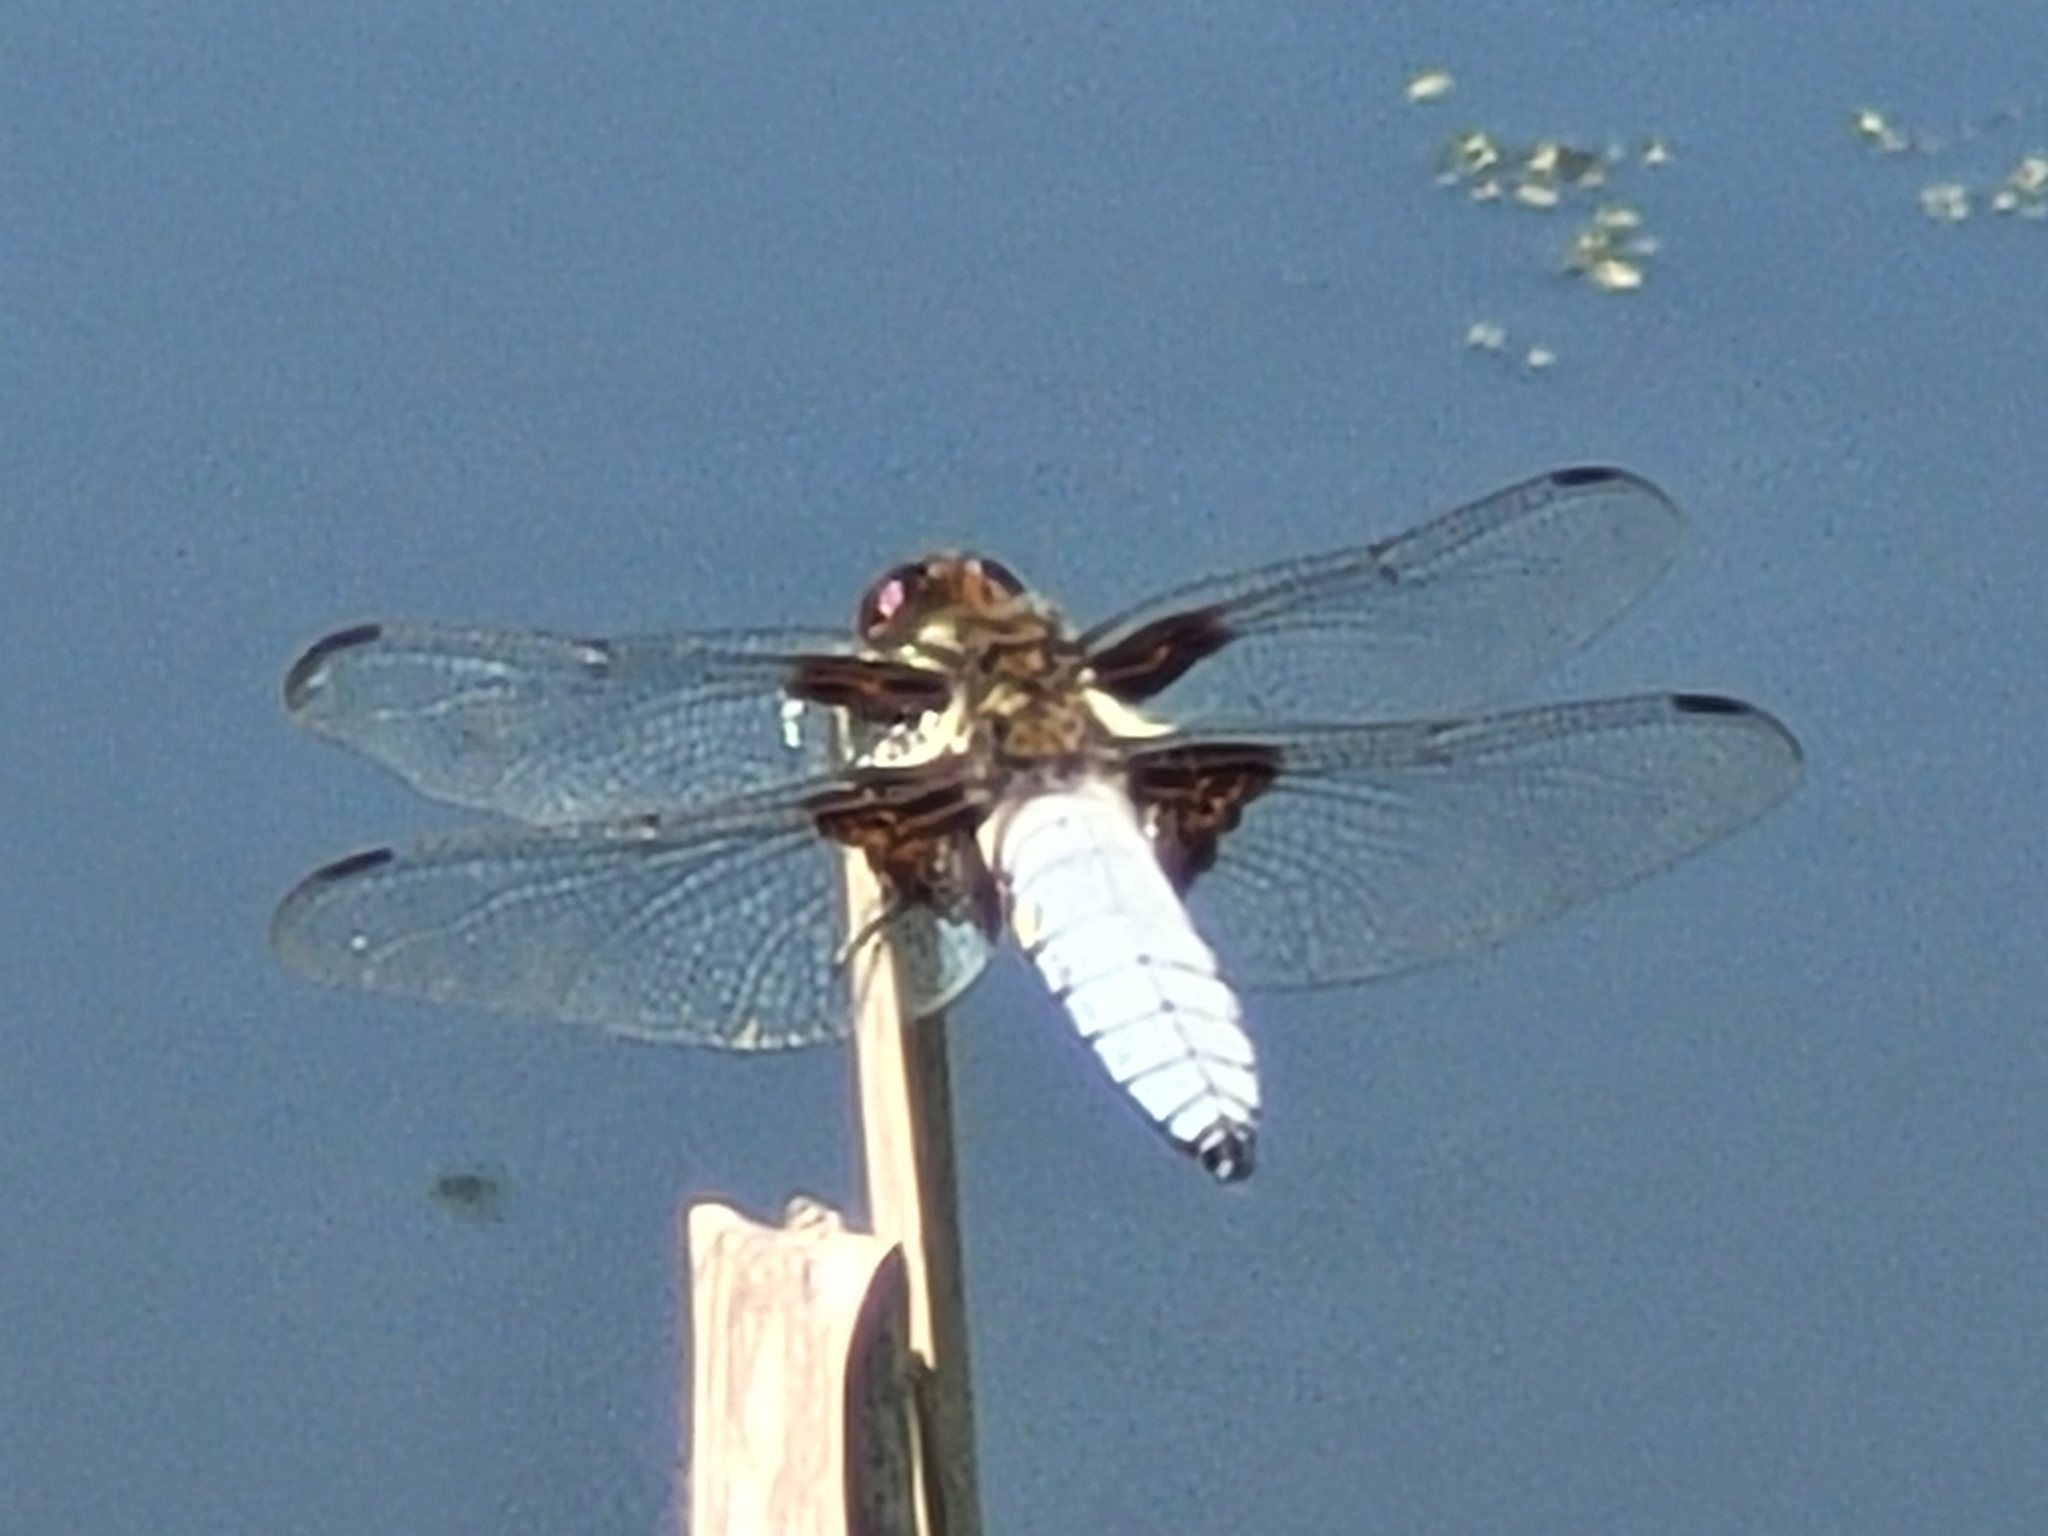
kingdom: Animalia
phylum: Arthropoda
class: Insecta
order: Odonata
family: Libellulidae
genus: Libellula
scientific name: Libellula depressa
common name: Broad-bodied chaser
